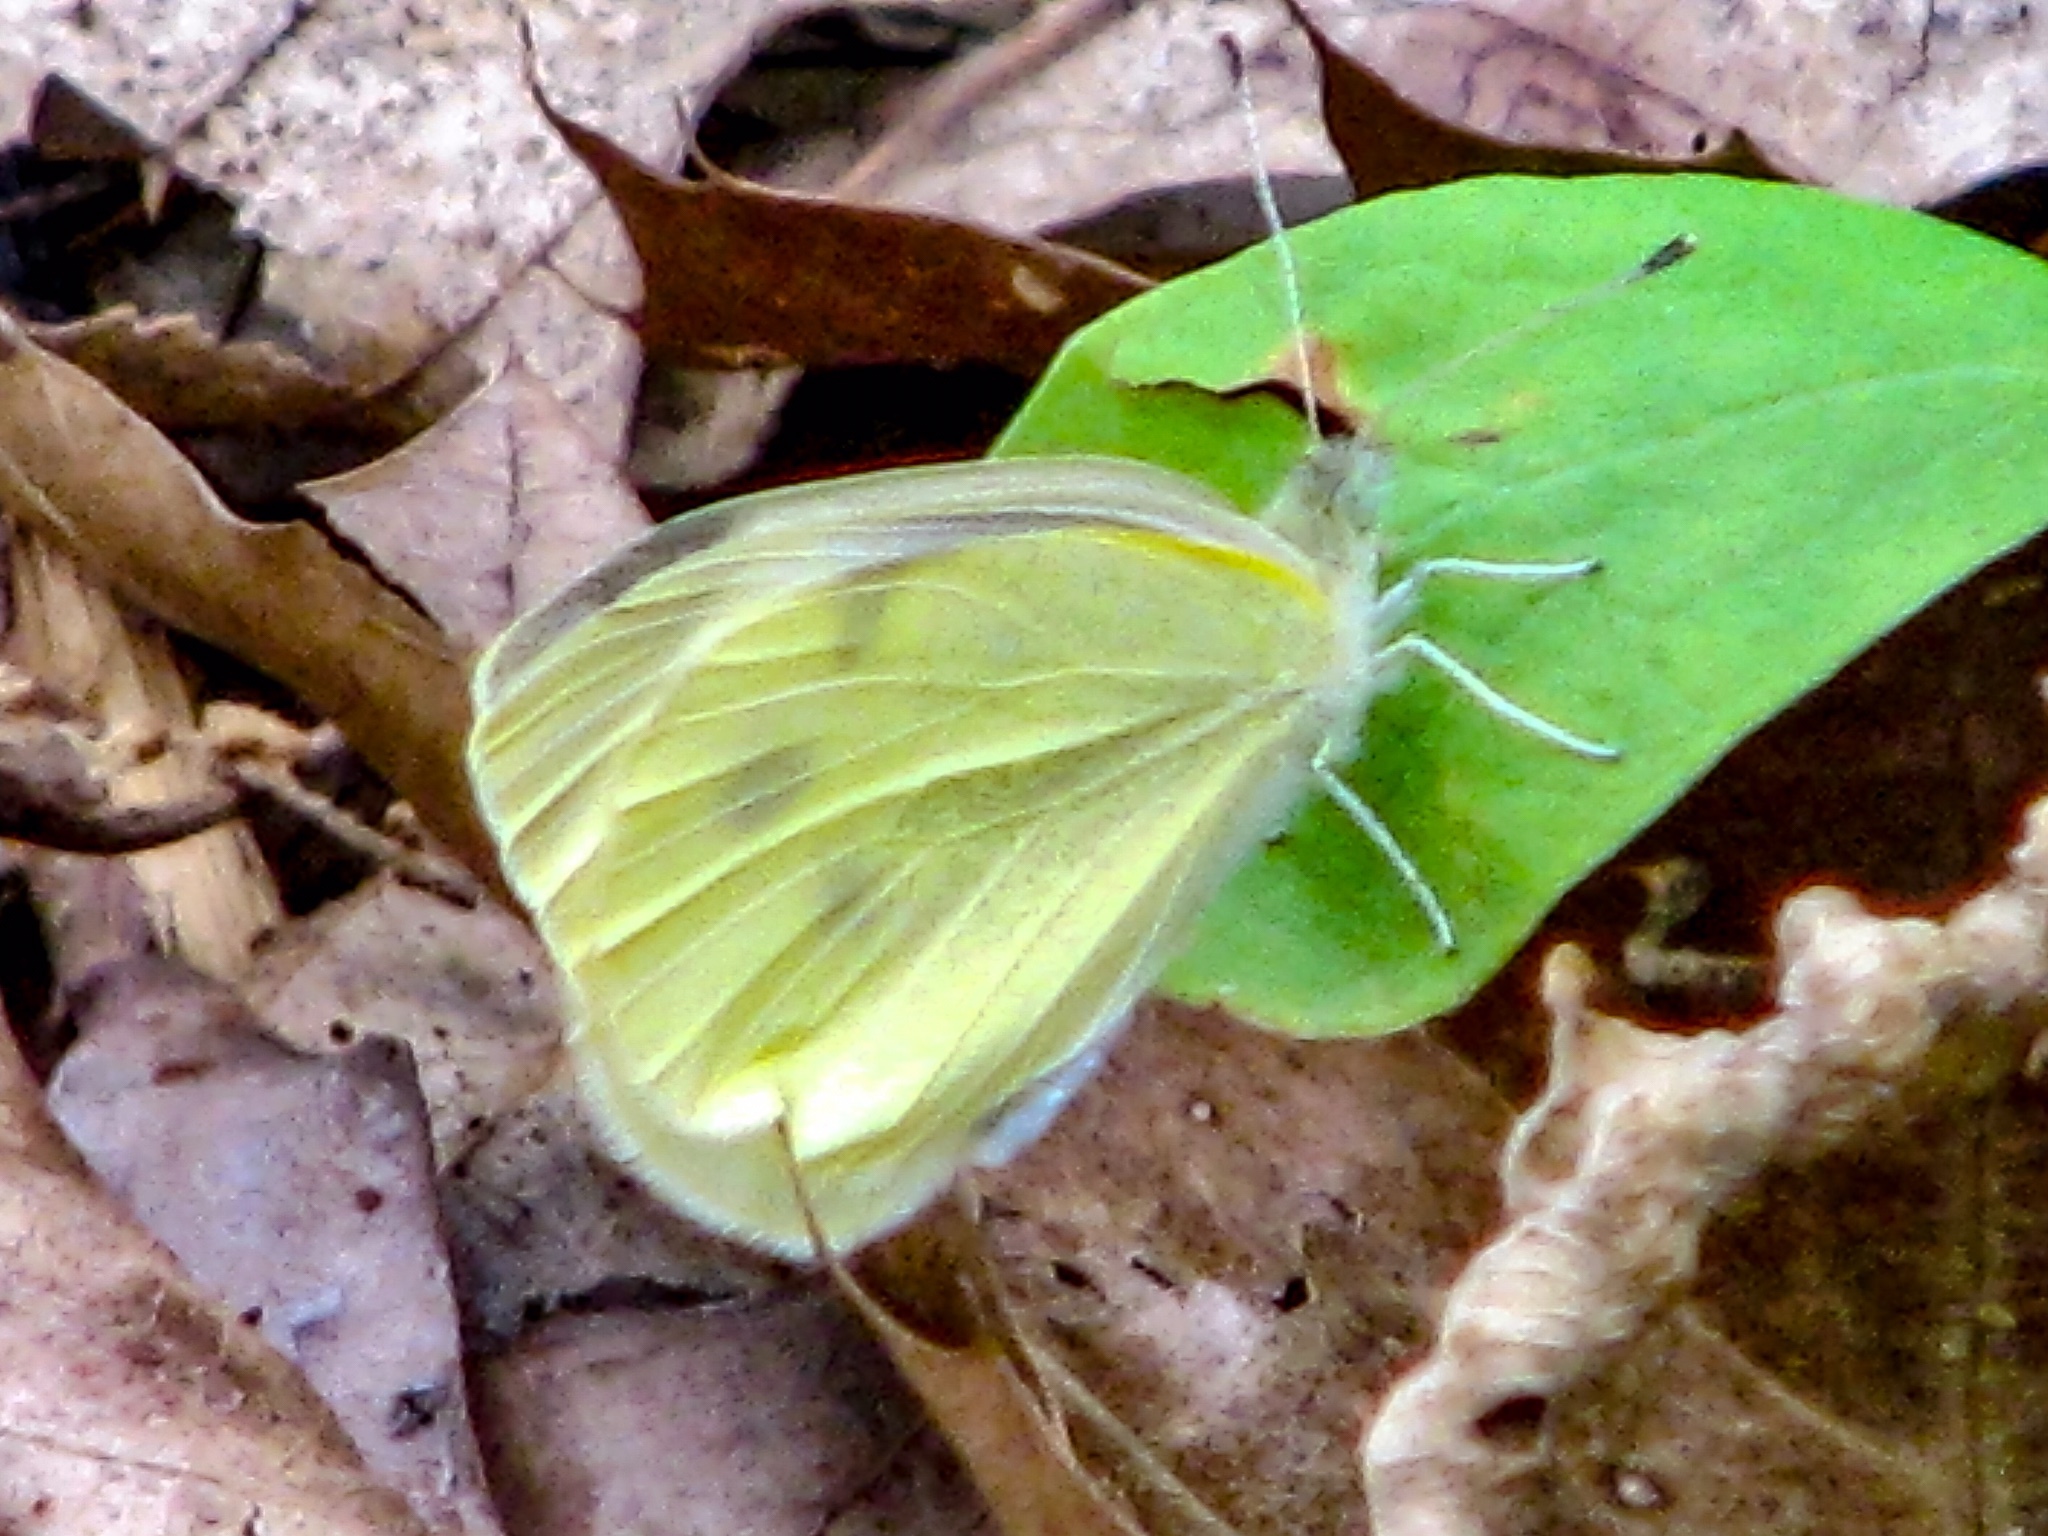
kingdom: Animalia
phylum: Arthropoda
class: Insecta
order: Lepidoptera
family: Pieridae
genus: Pieris
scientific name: Pieris rapae
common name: Small white
